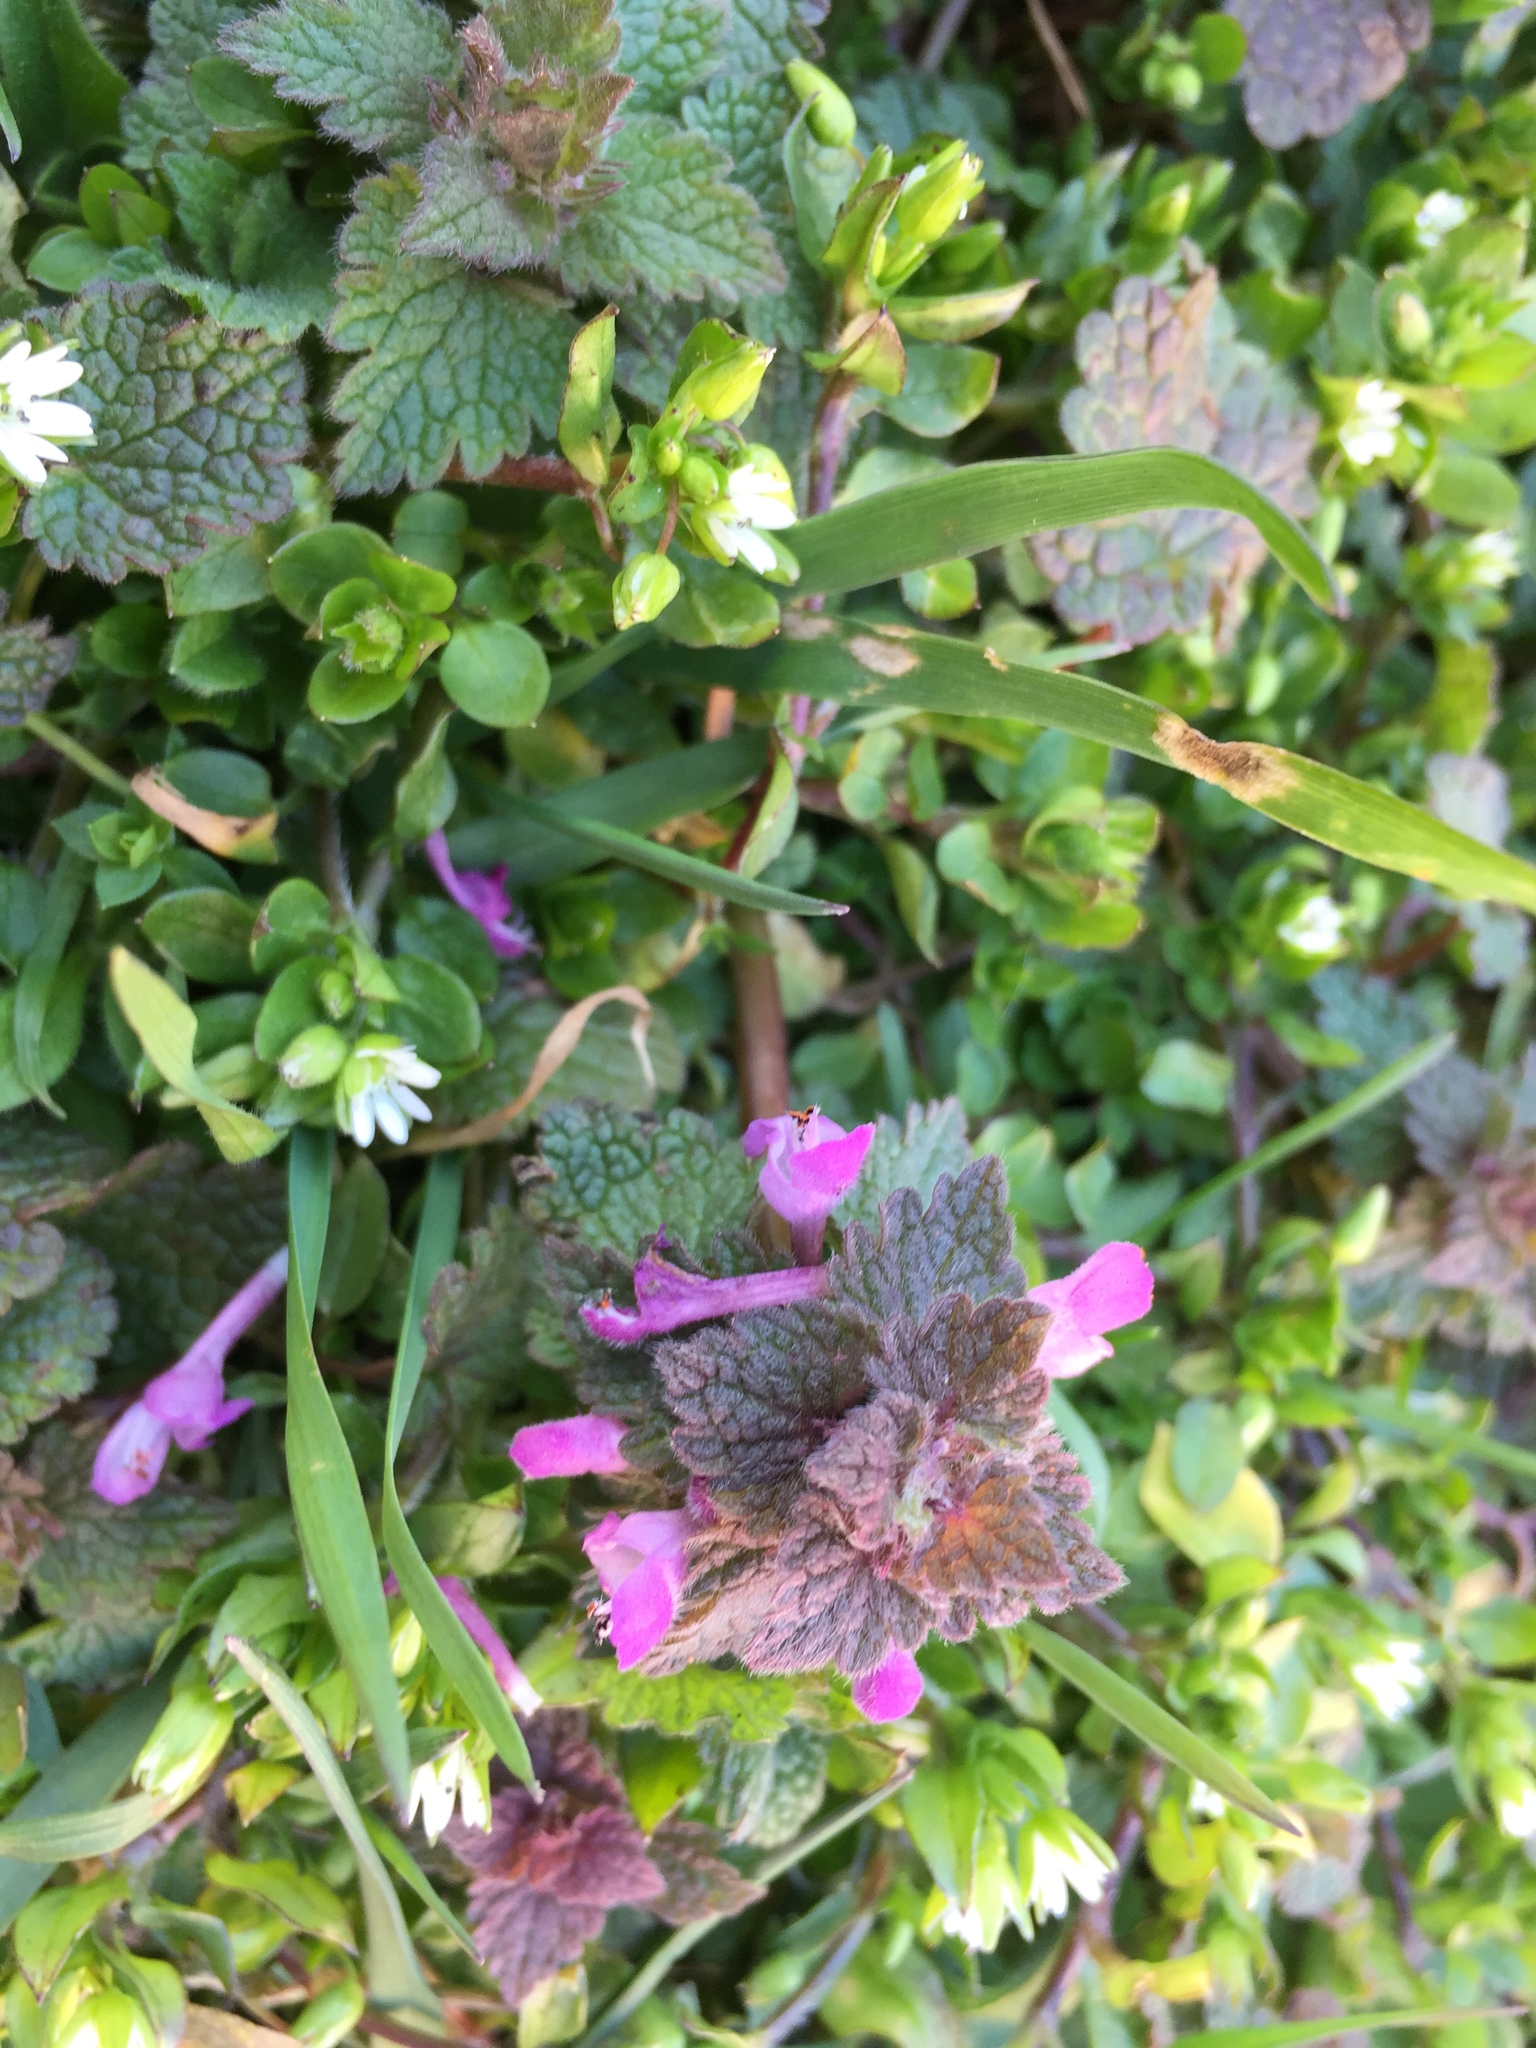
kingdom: Plantae
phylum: Tracheophyta
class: Magnoliopsida
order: Lamiales
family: Lamiaceae
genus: Lamium
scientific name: Lamium purpureum
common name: Red dead-nettle
